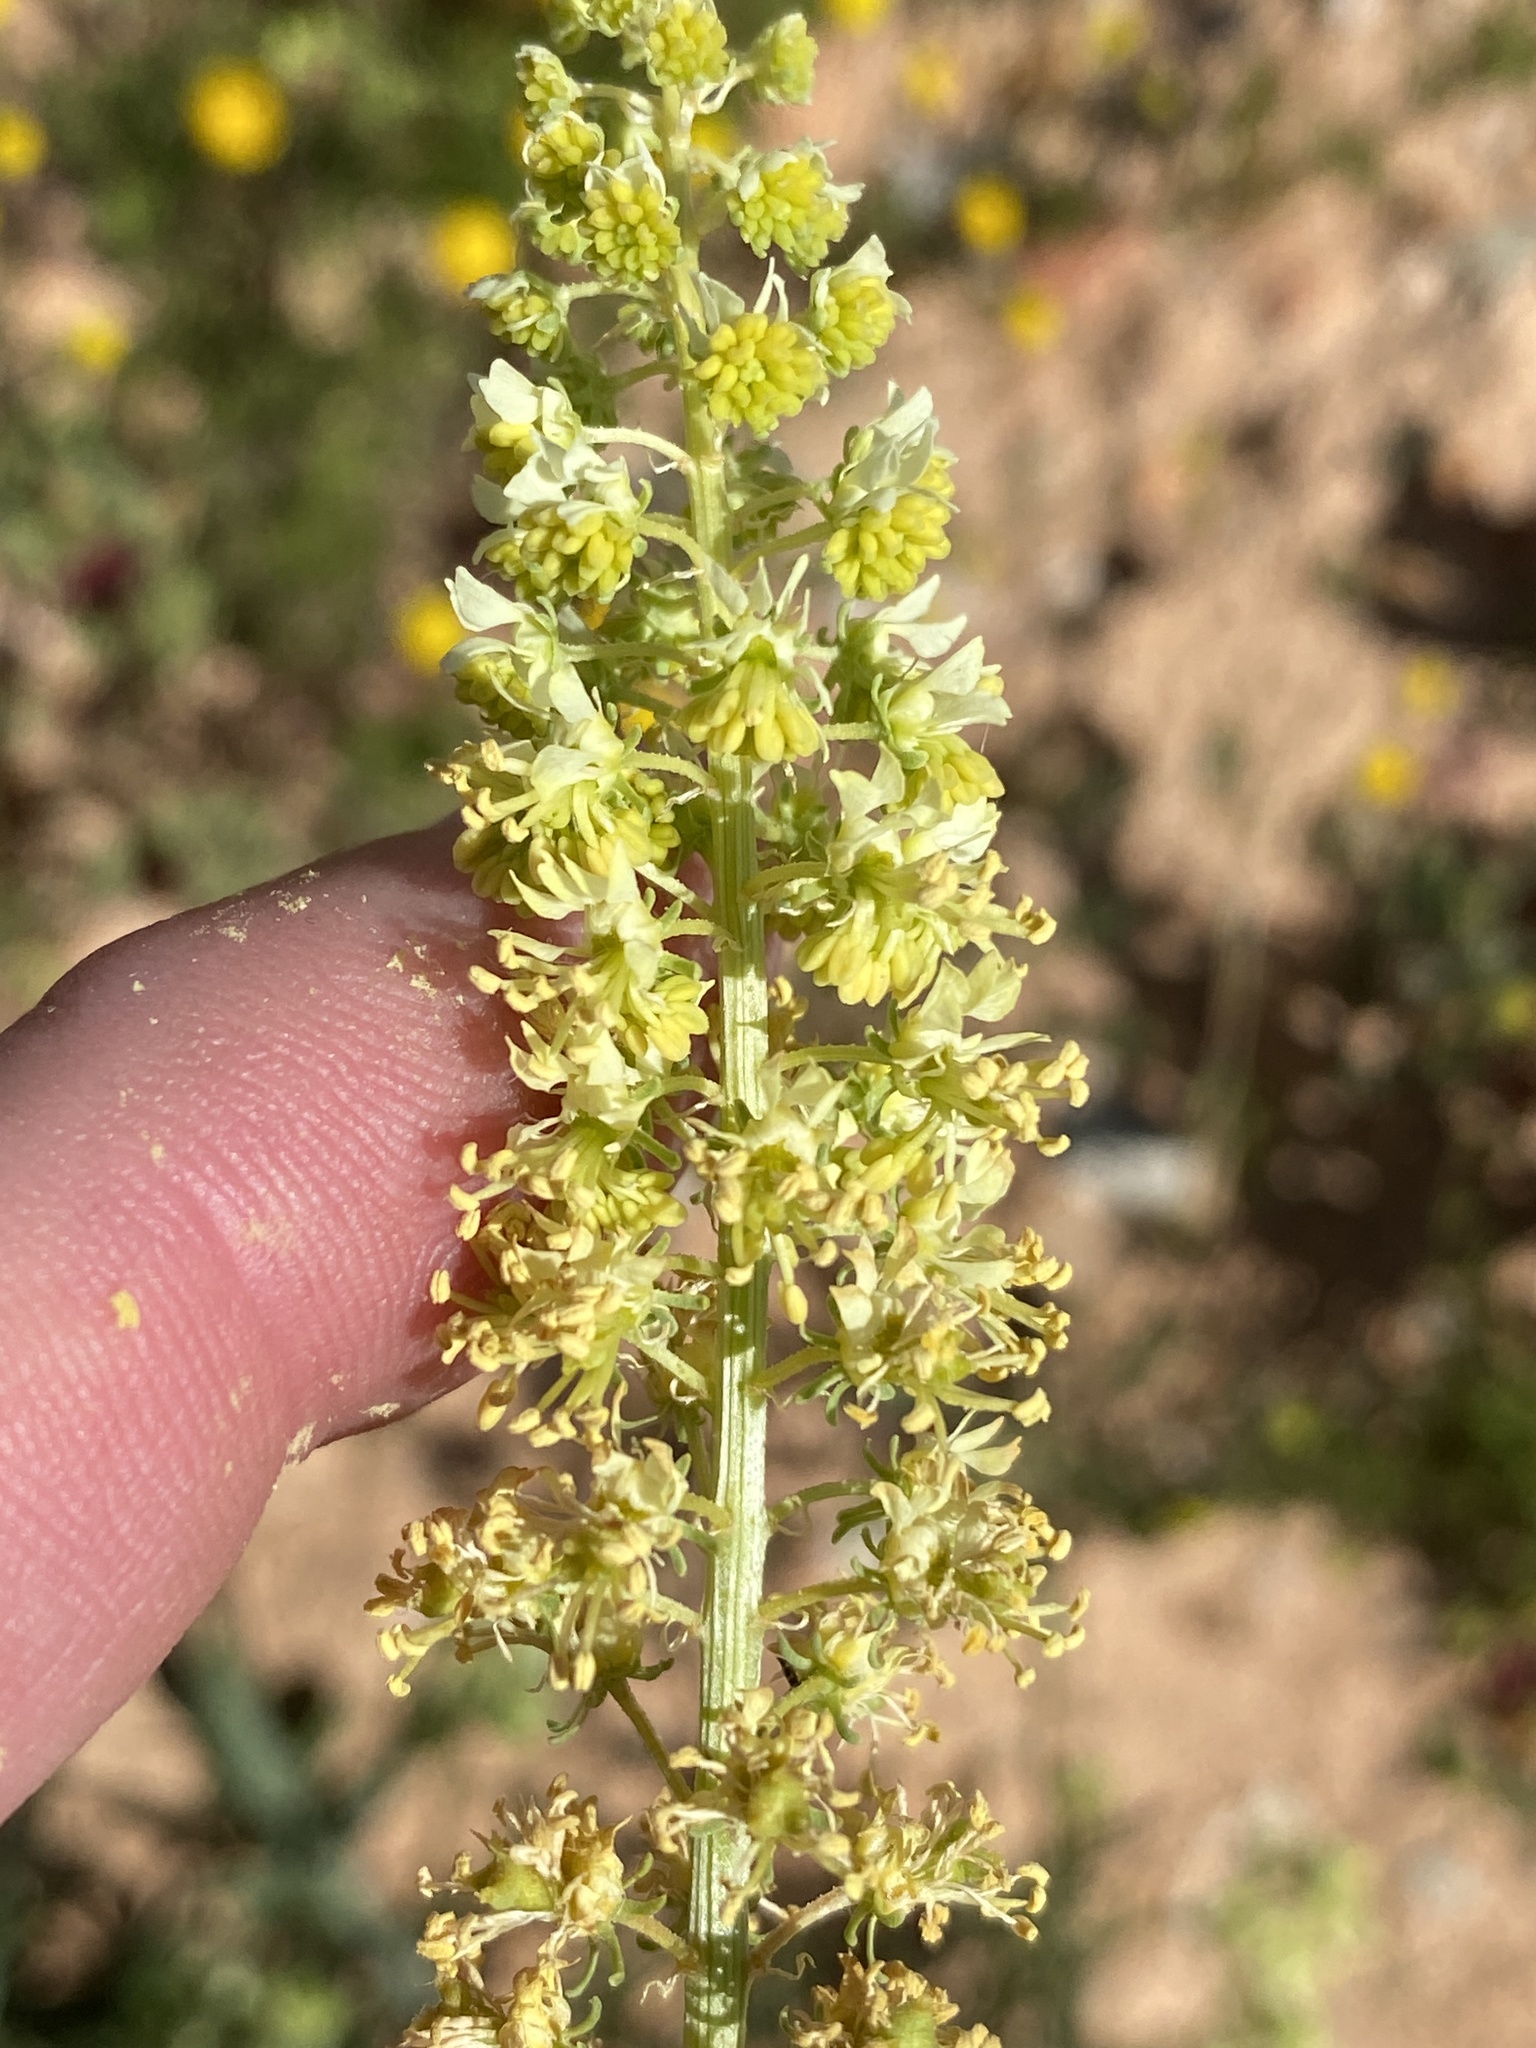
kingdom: Plantae
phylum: Tracheophyta
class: Magnoliopsida
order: Brassicales
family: Resedaceae
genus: Reseda
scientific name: Reseda lutea
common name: Wild mignonette
